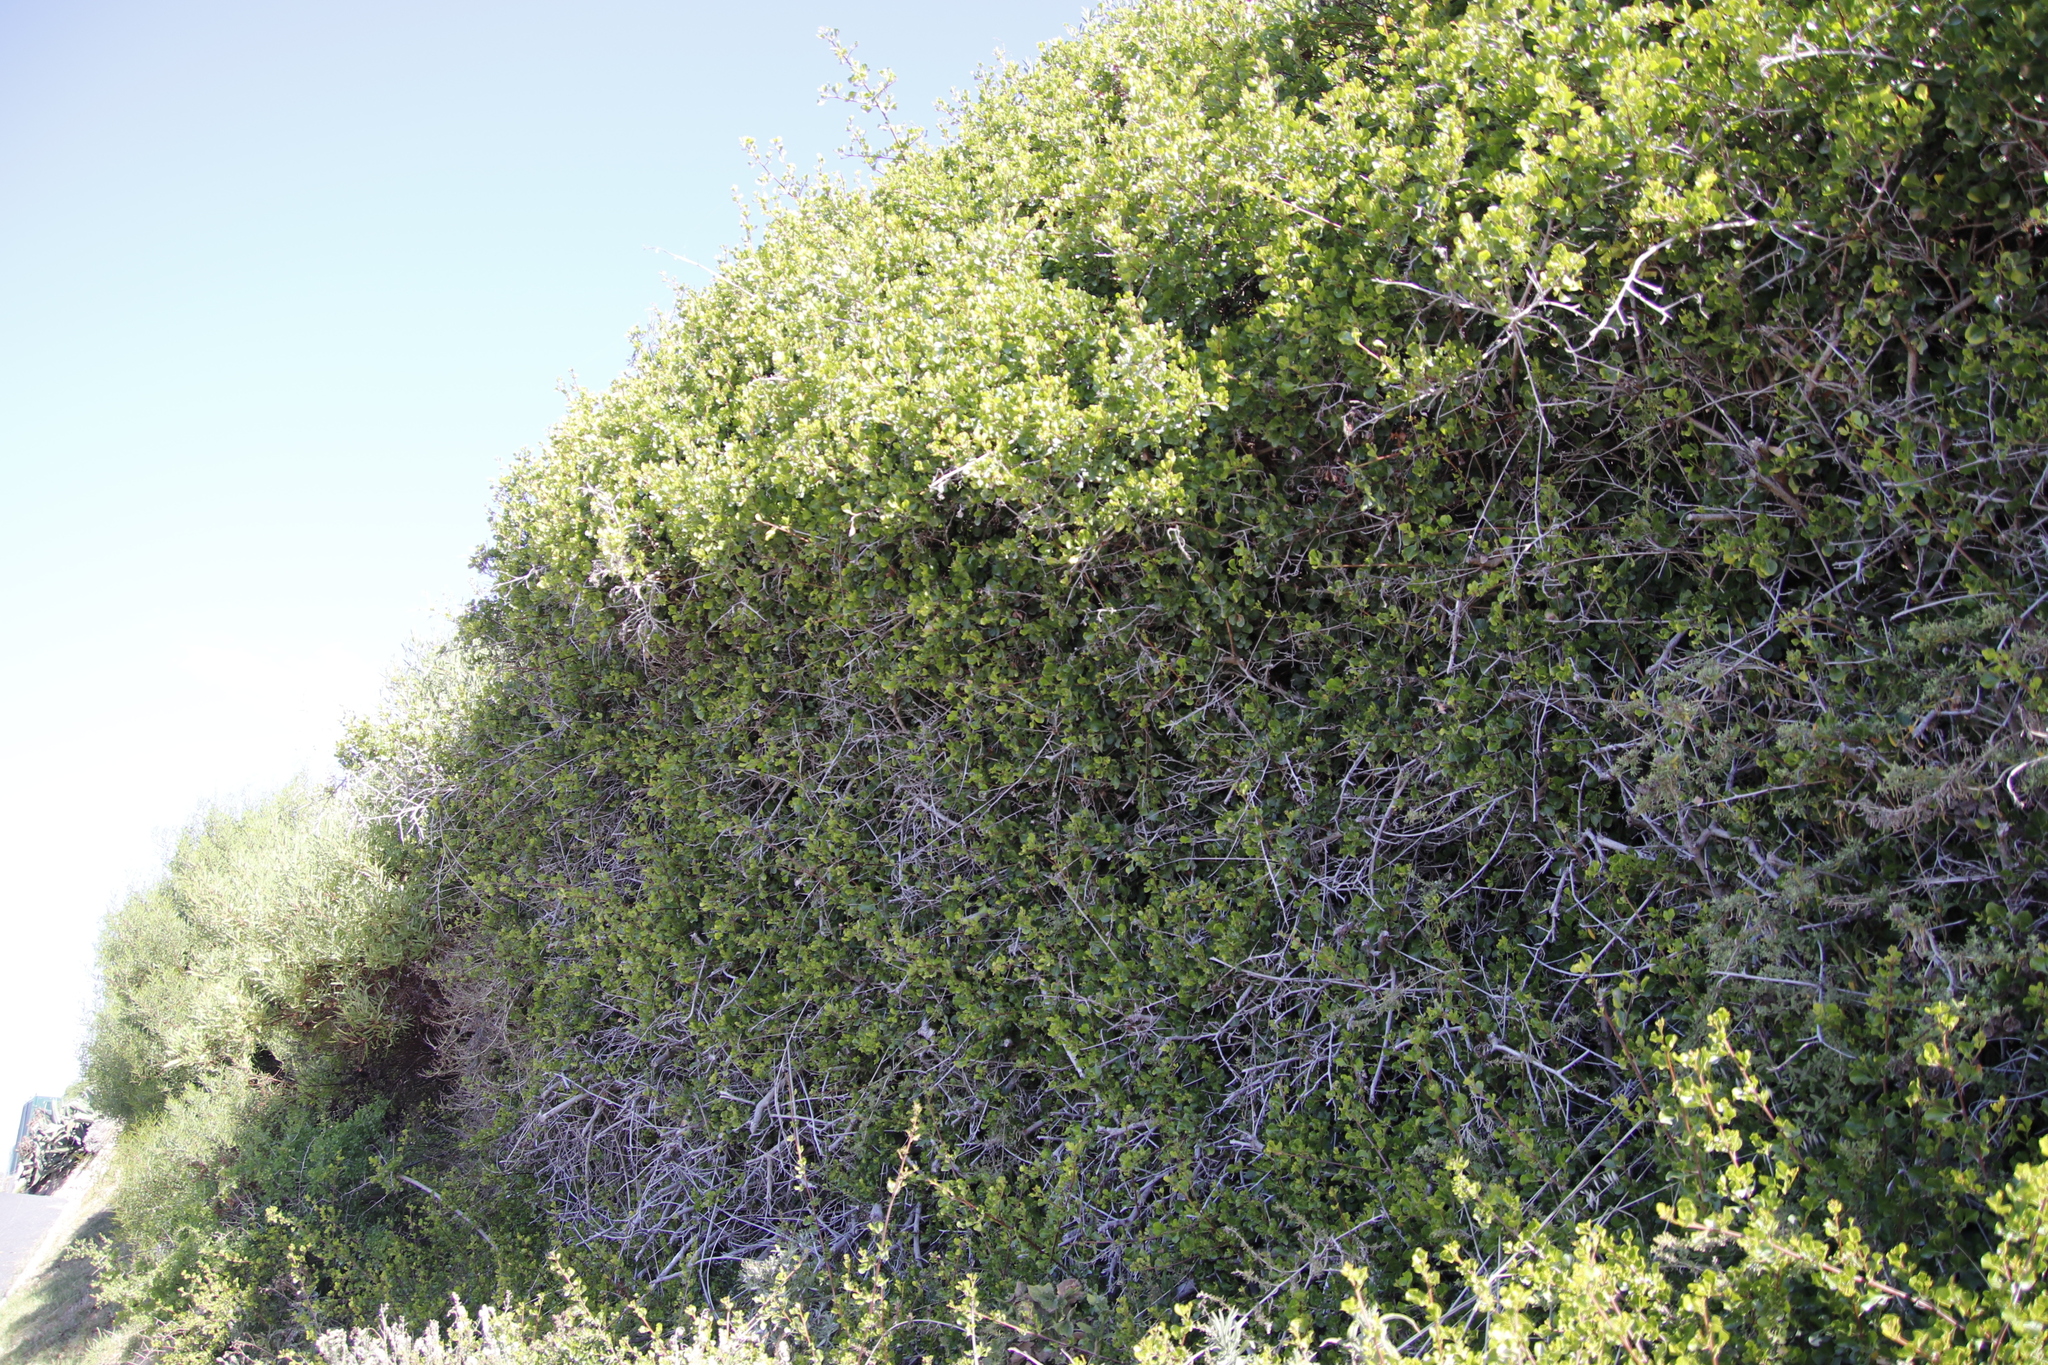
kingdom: Plantae
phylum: Tracheophyta
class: Magnoliopsida
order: Sapindales
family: Anacardiaceae
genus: Searsia
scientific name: Searsia glauca
